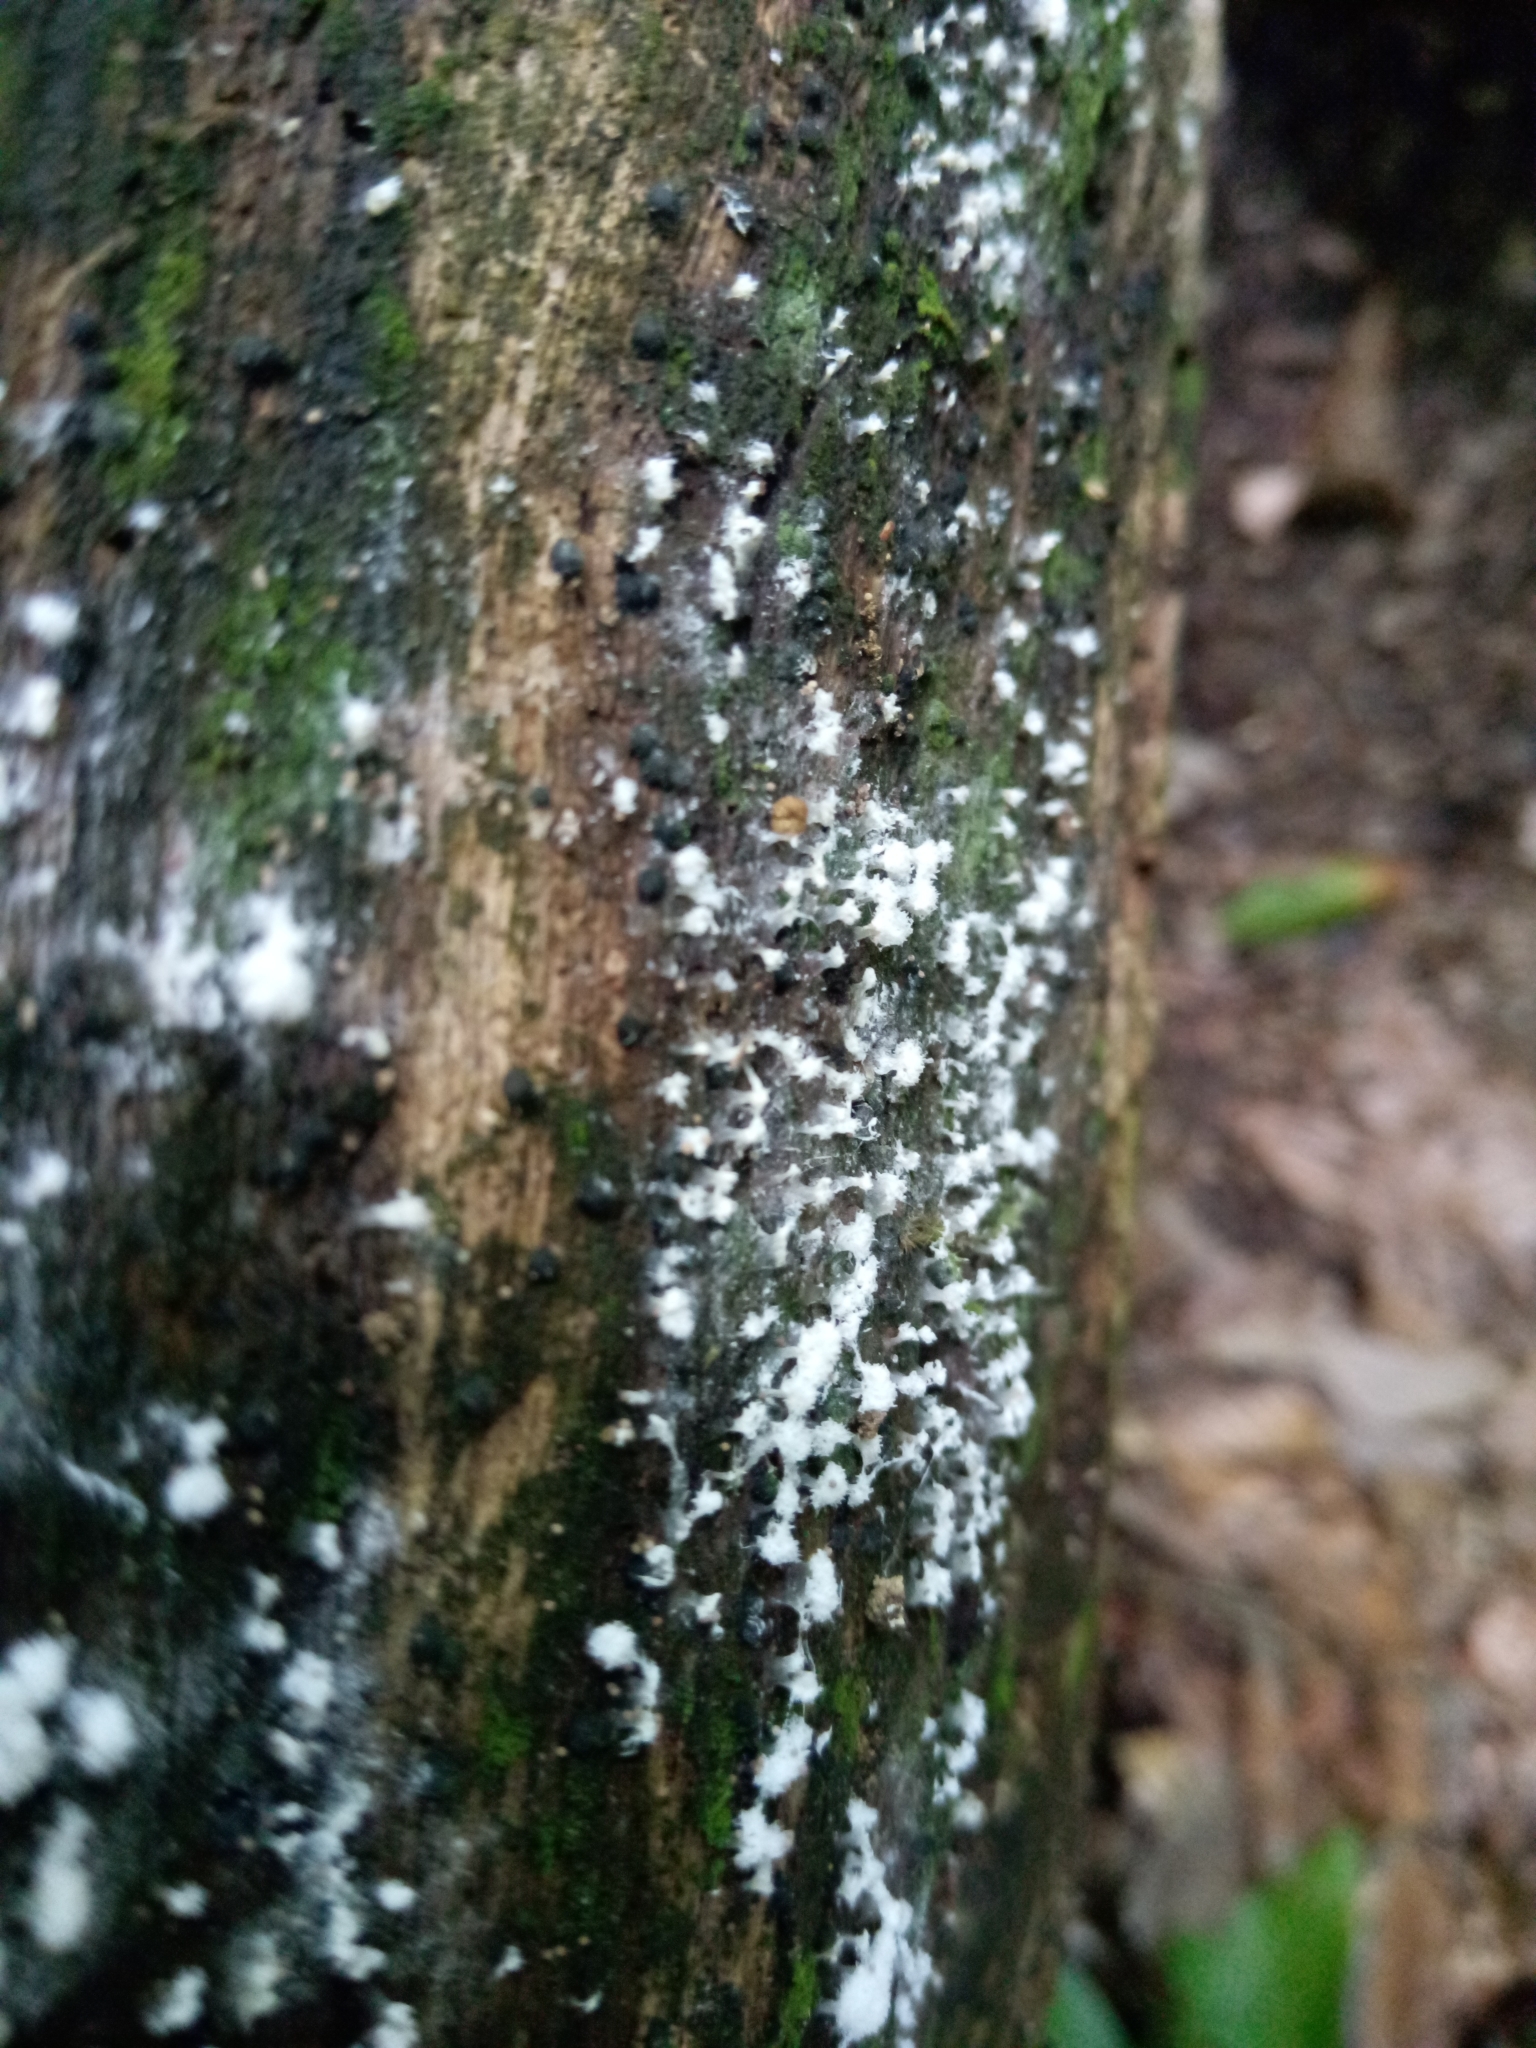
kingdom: Protozoa
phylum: Mycetozoa
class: Protosteliomycetes
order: Ceratiomyxales
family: Ceratiomyxaceae
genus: Ceratiomyxa
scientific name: Ceratiomyxa fruticulosa
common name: Honeycomb coral slime mold
